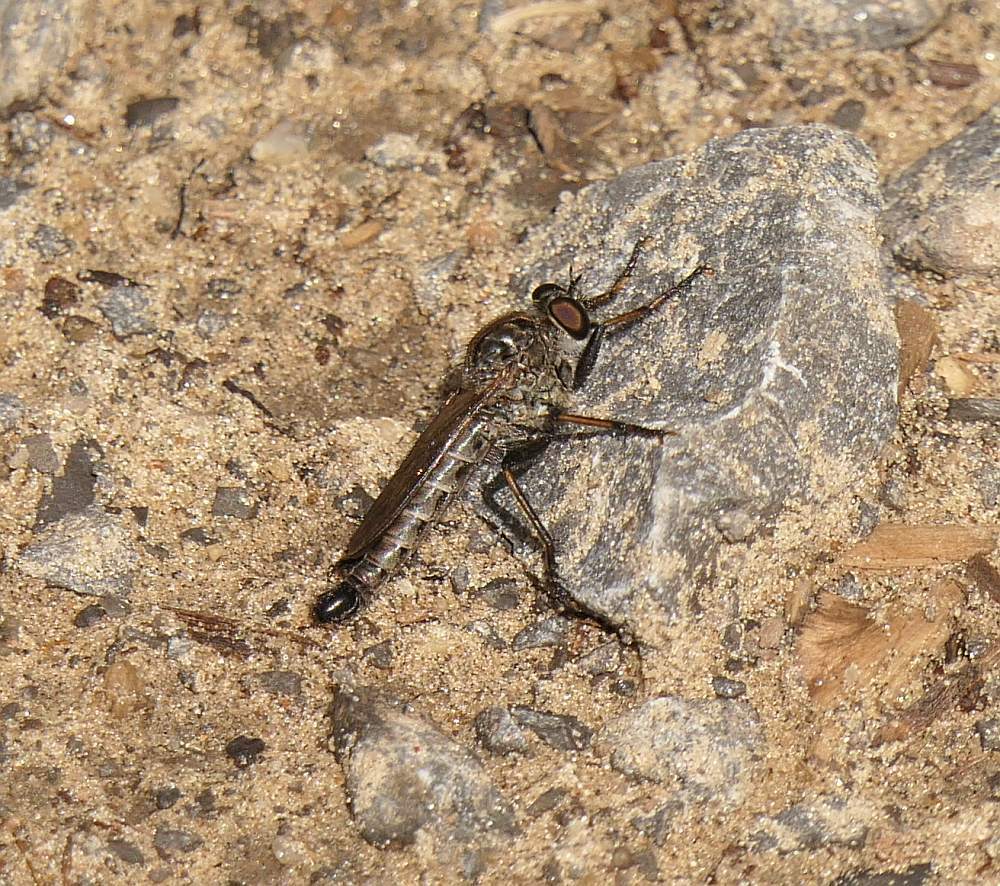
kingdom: Animalia
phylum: Arthropoda
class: Insecta
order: Diptera
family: Asilidae
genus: Machimus
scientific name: Machimus sadyates
